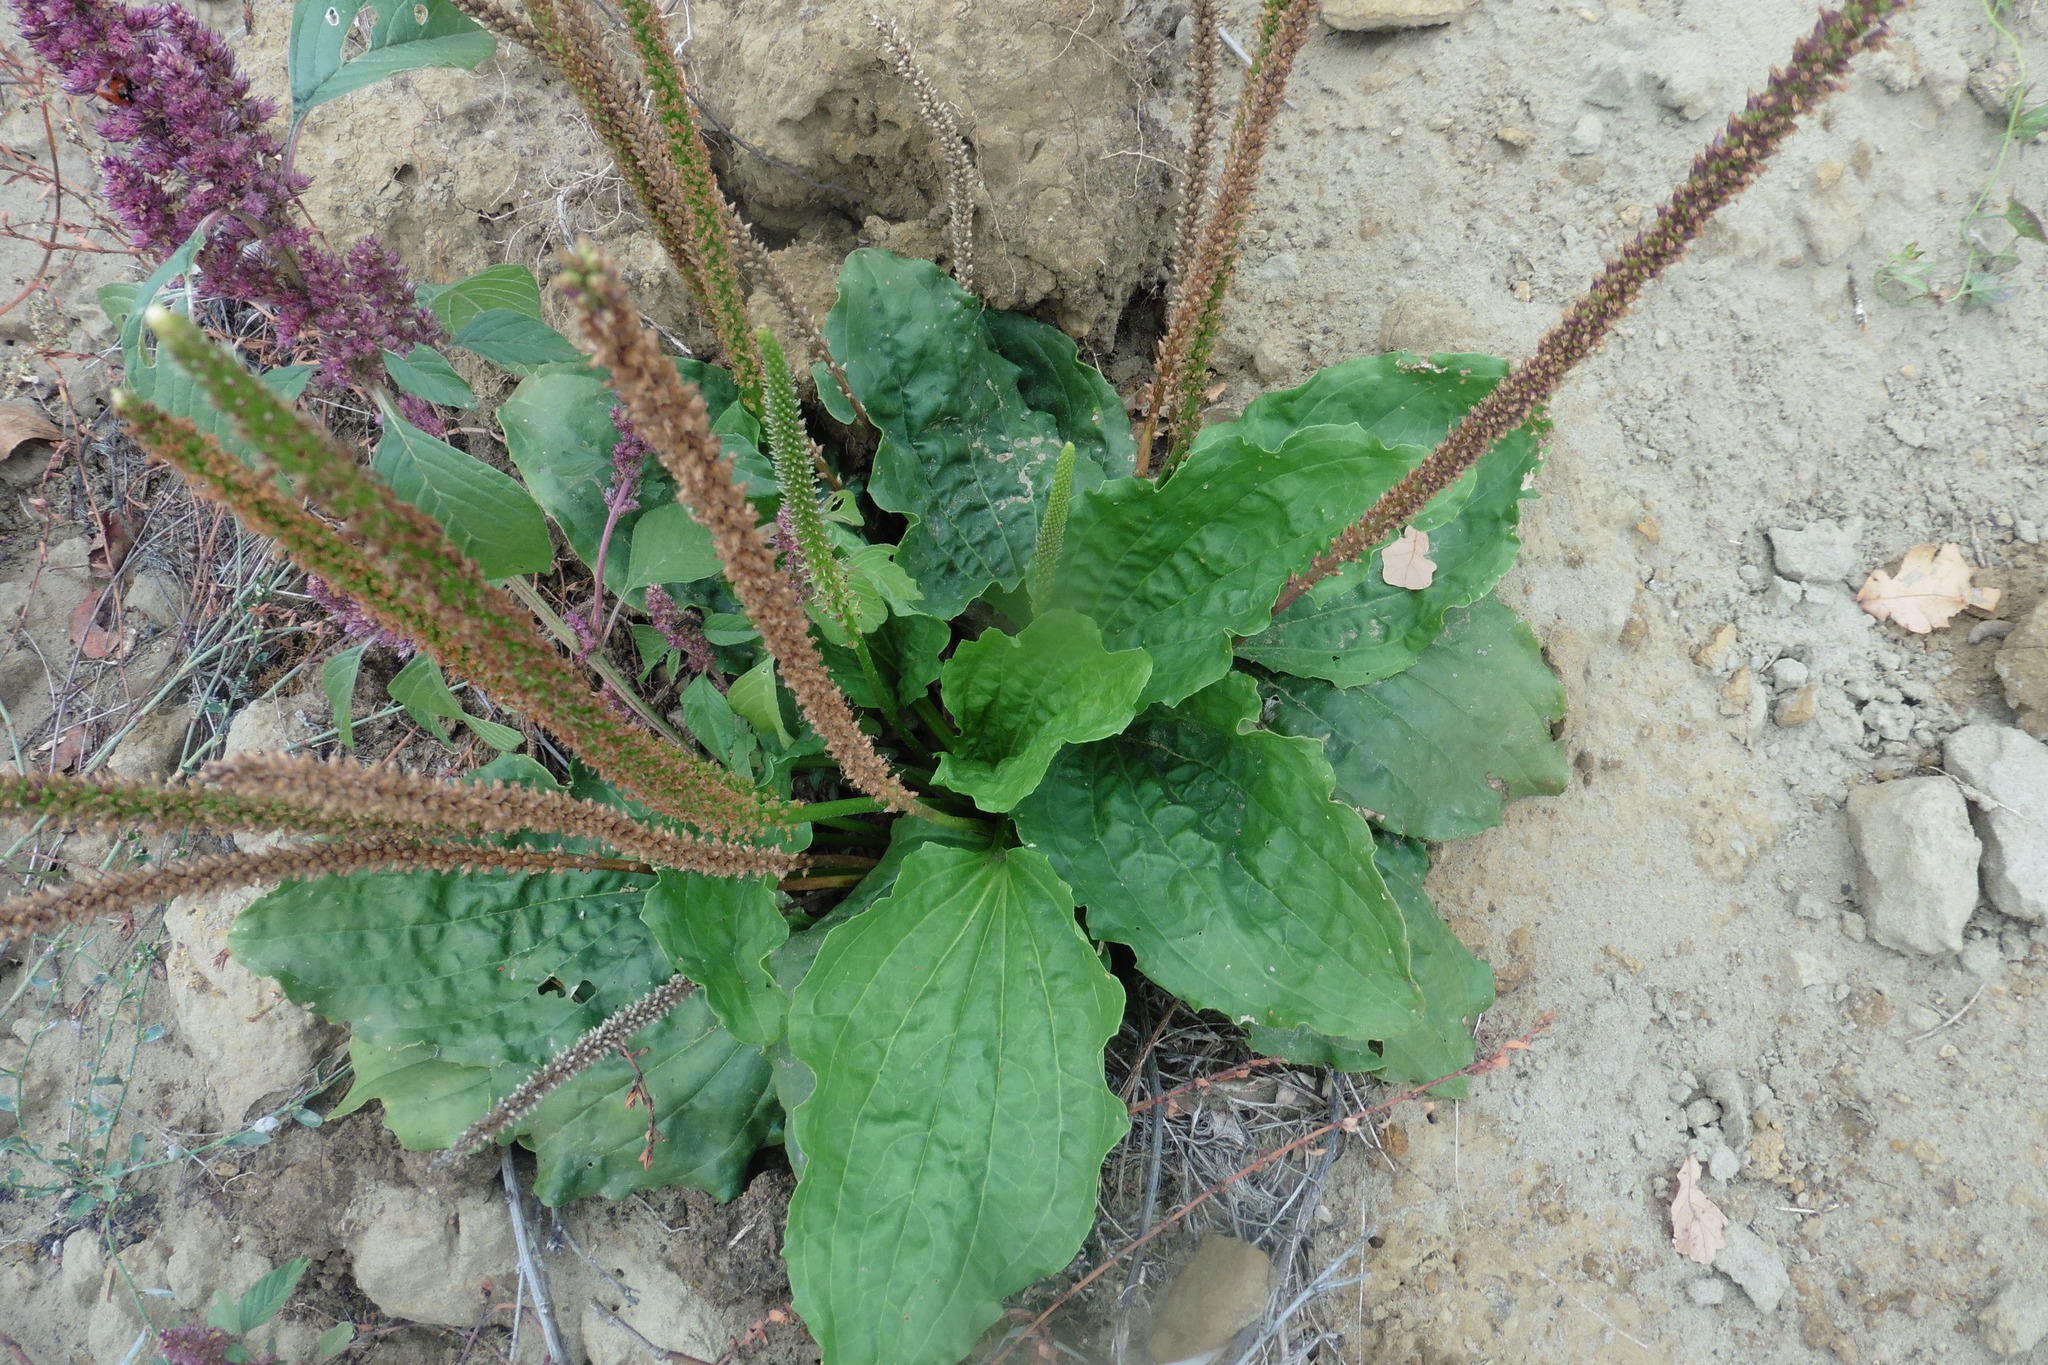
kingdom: Plantae
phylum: Tracheophyta
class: Magnoliopsida
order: Lamiales
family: Plantaginaceae
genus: Plantago
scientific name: Plantago major
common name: Common plantain
